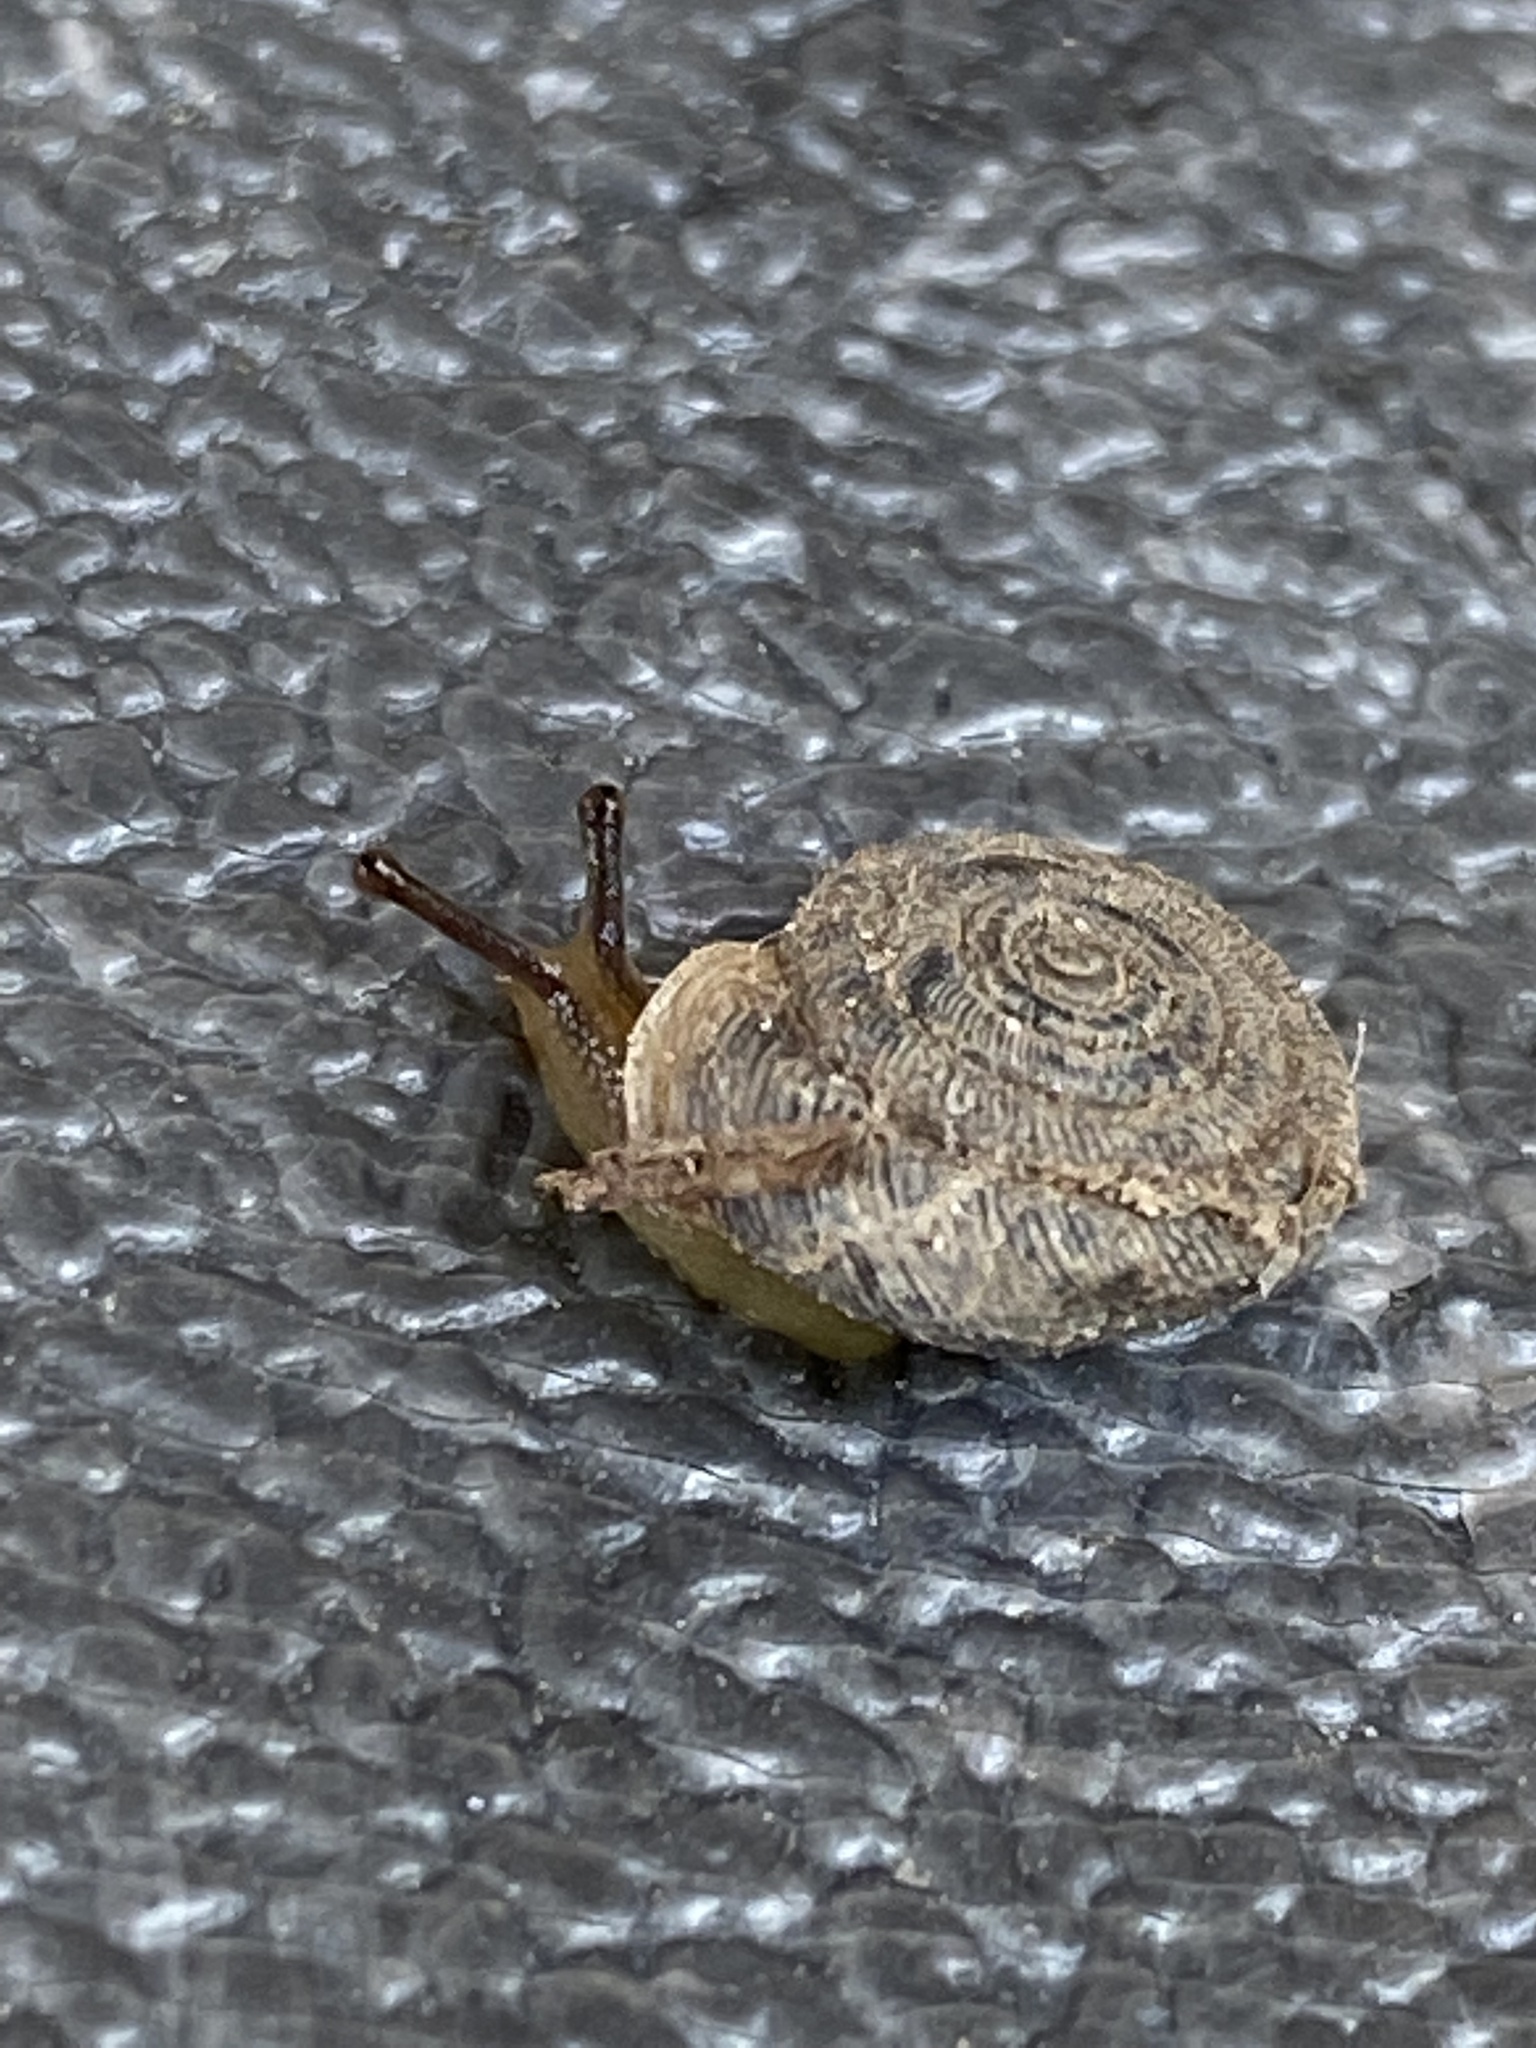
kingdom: Animalia
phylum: Mollusca
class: Gastropoda
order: Stylommatophora
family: Polygyridae
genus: Polygyra
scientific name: Polygyra cereolus
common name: Southern flatcone snail
